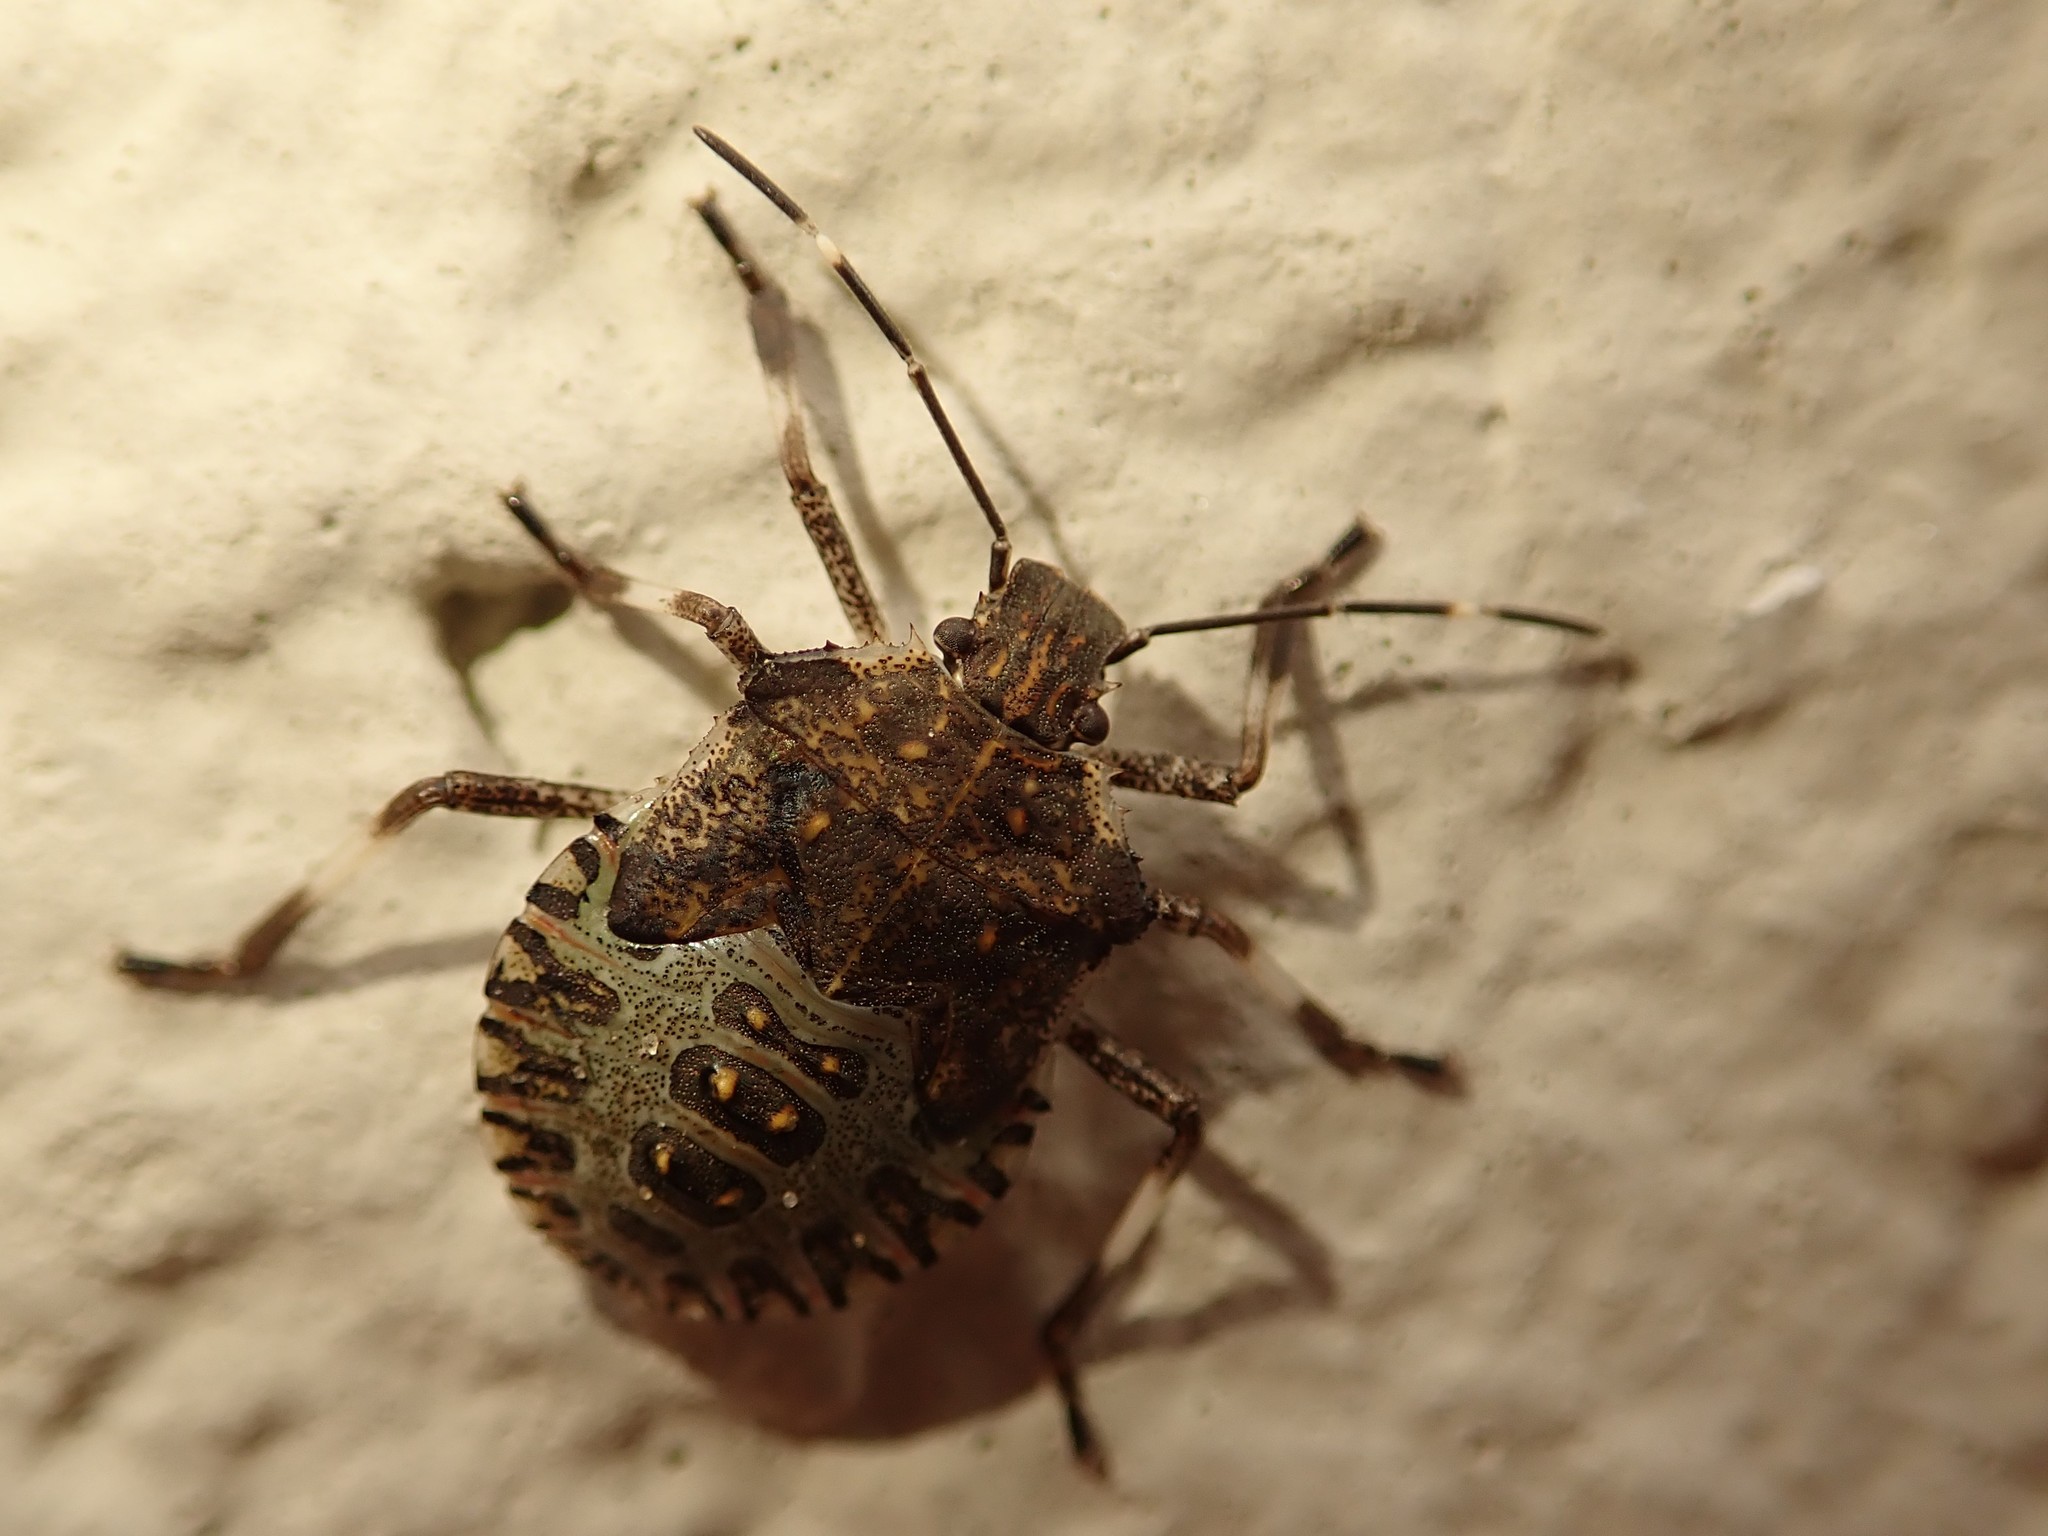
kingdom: Animalia
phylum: Arthropoda
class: Insecta
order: Hemiptera
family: Pentatomidae
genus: Halyomorpha
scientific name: Halyomorpha halys
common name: Brown marmorated stink bug
